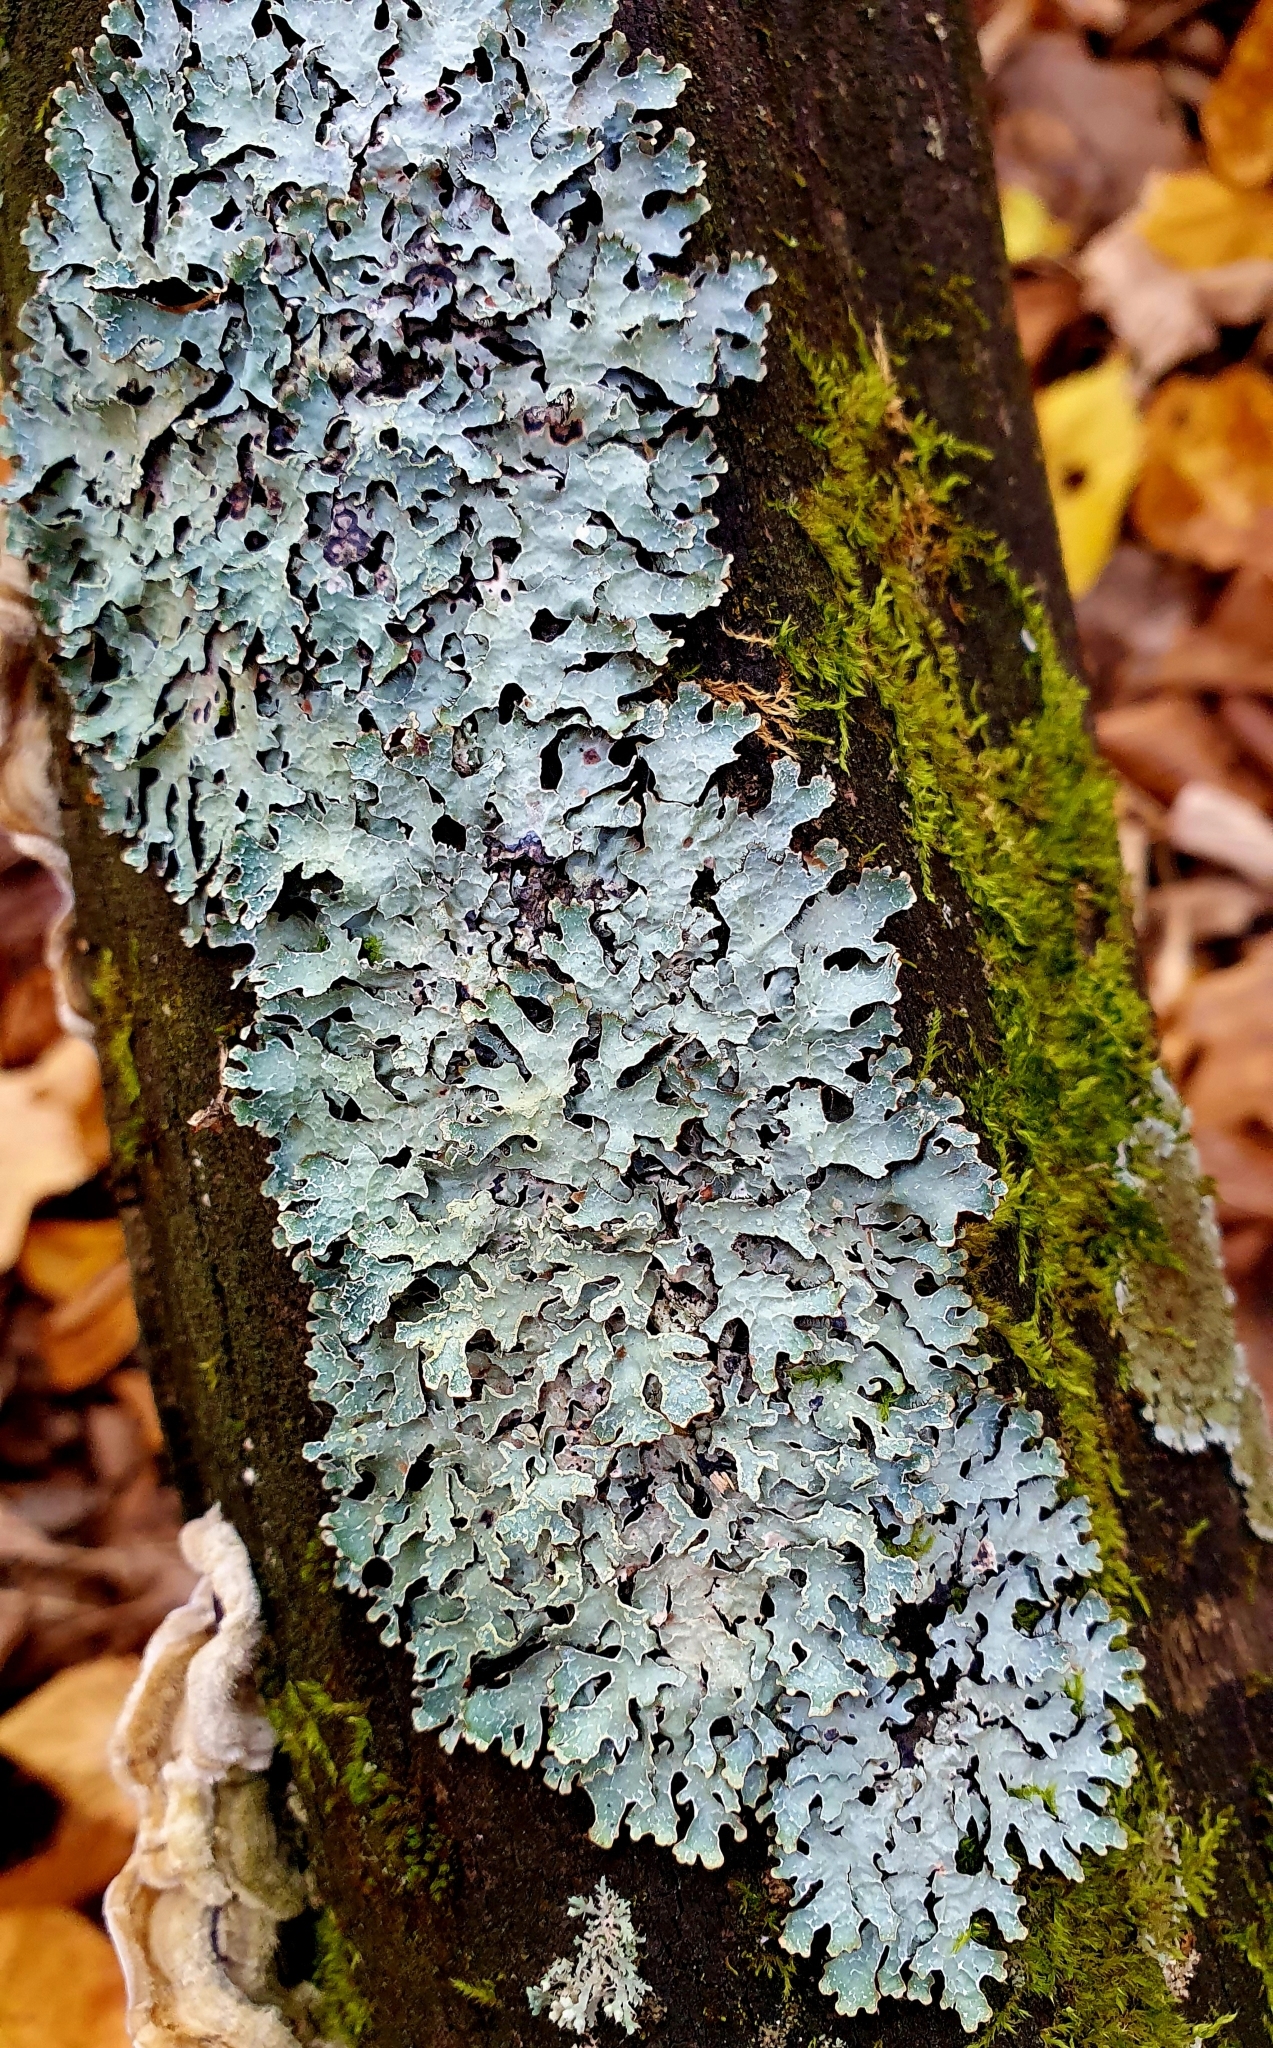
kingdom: Fungi
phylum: Ascomycota
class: Lecanoromycetes
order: Lecanorales
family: Parmeliaceae
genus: Parmelia
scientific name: Parmelia sulcata
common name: Netted shield lichen
